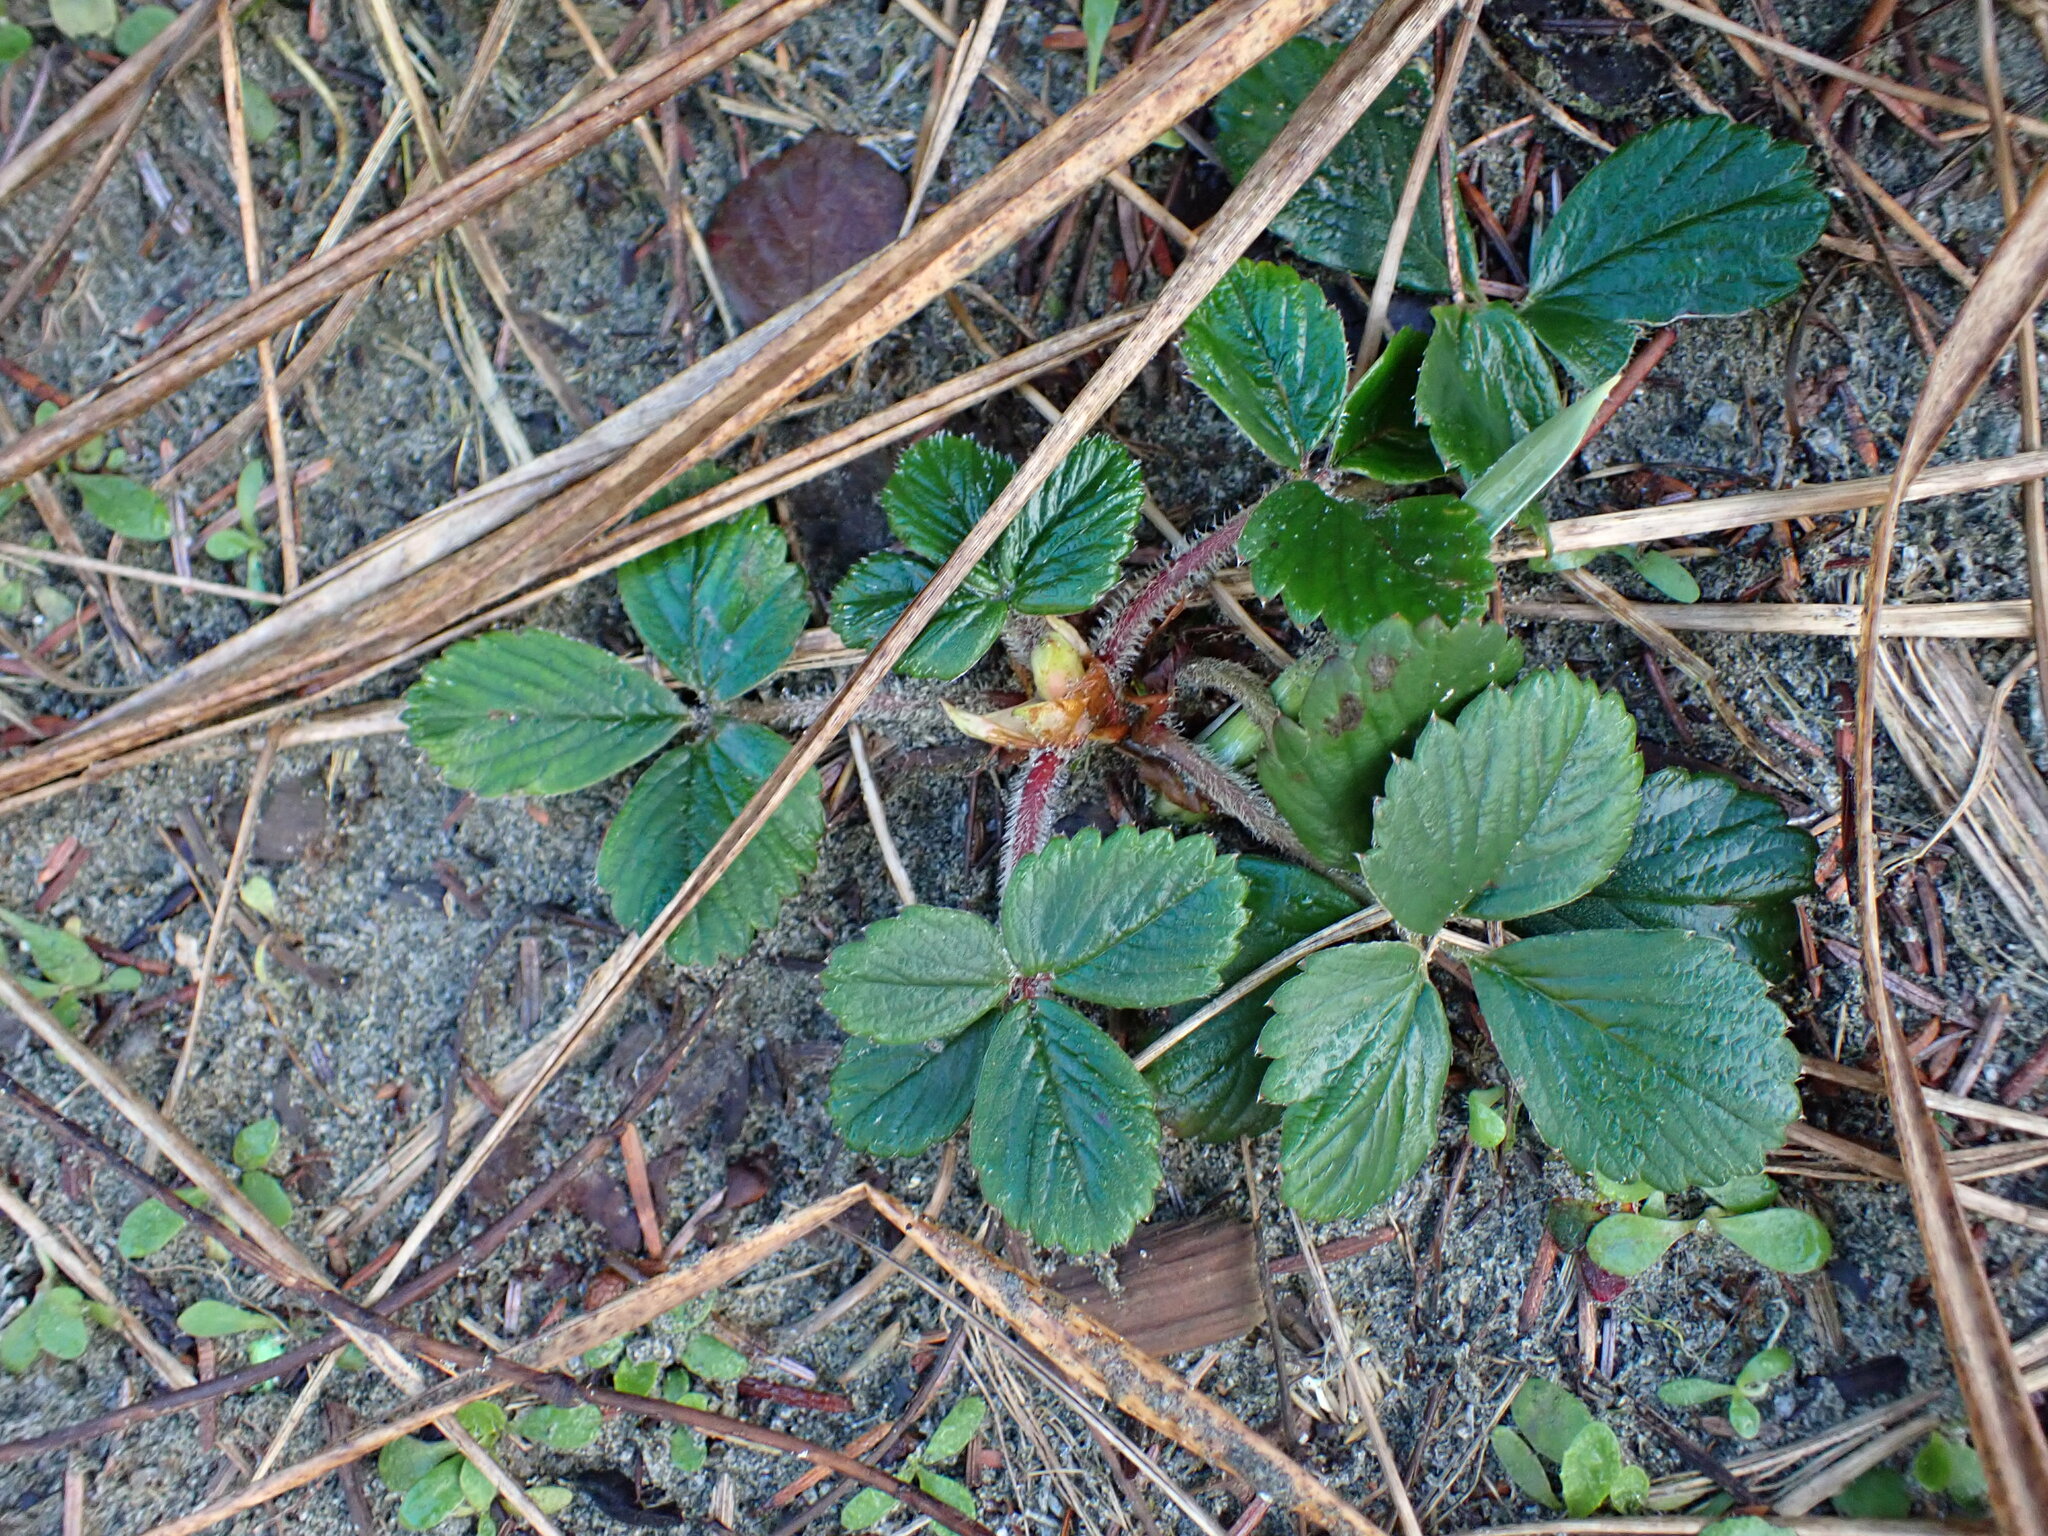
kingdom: Plantae
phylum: Tracheophyta
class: Magnoliopsida
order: Rosales
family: Rosaceae
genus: Fragaria
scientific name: Fragaria chiloensis
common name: Beach strawberry
